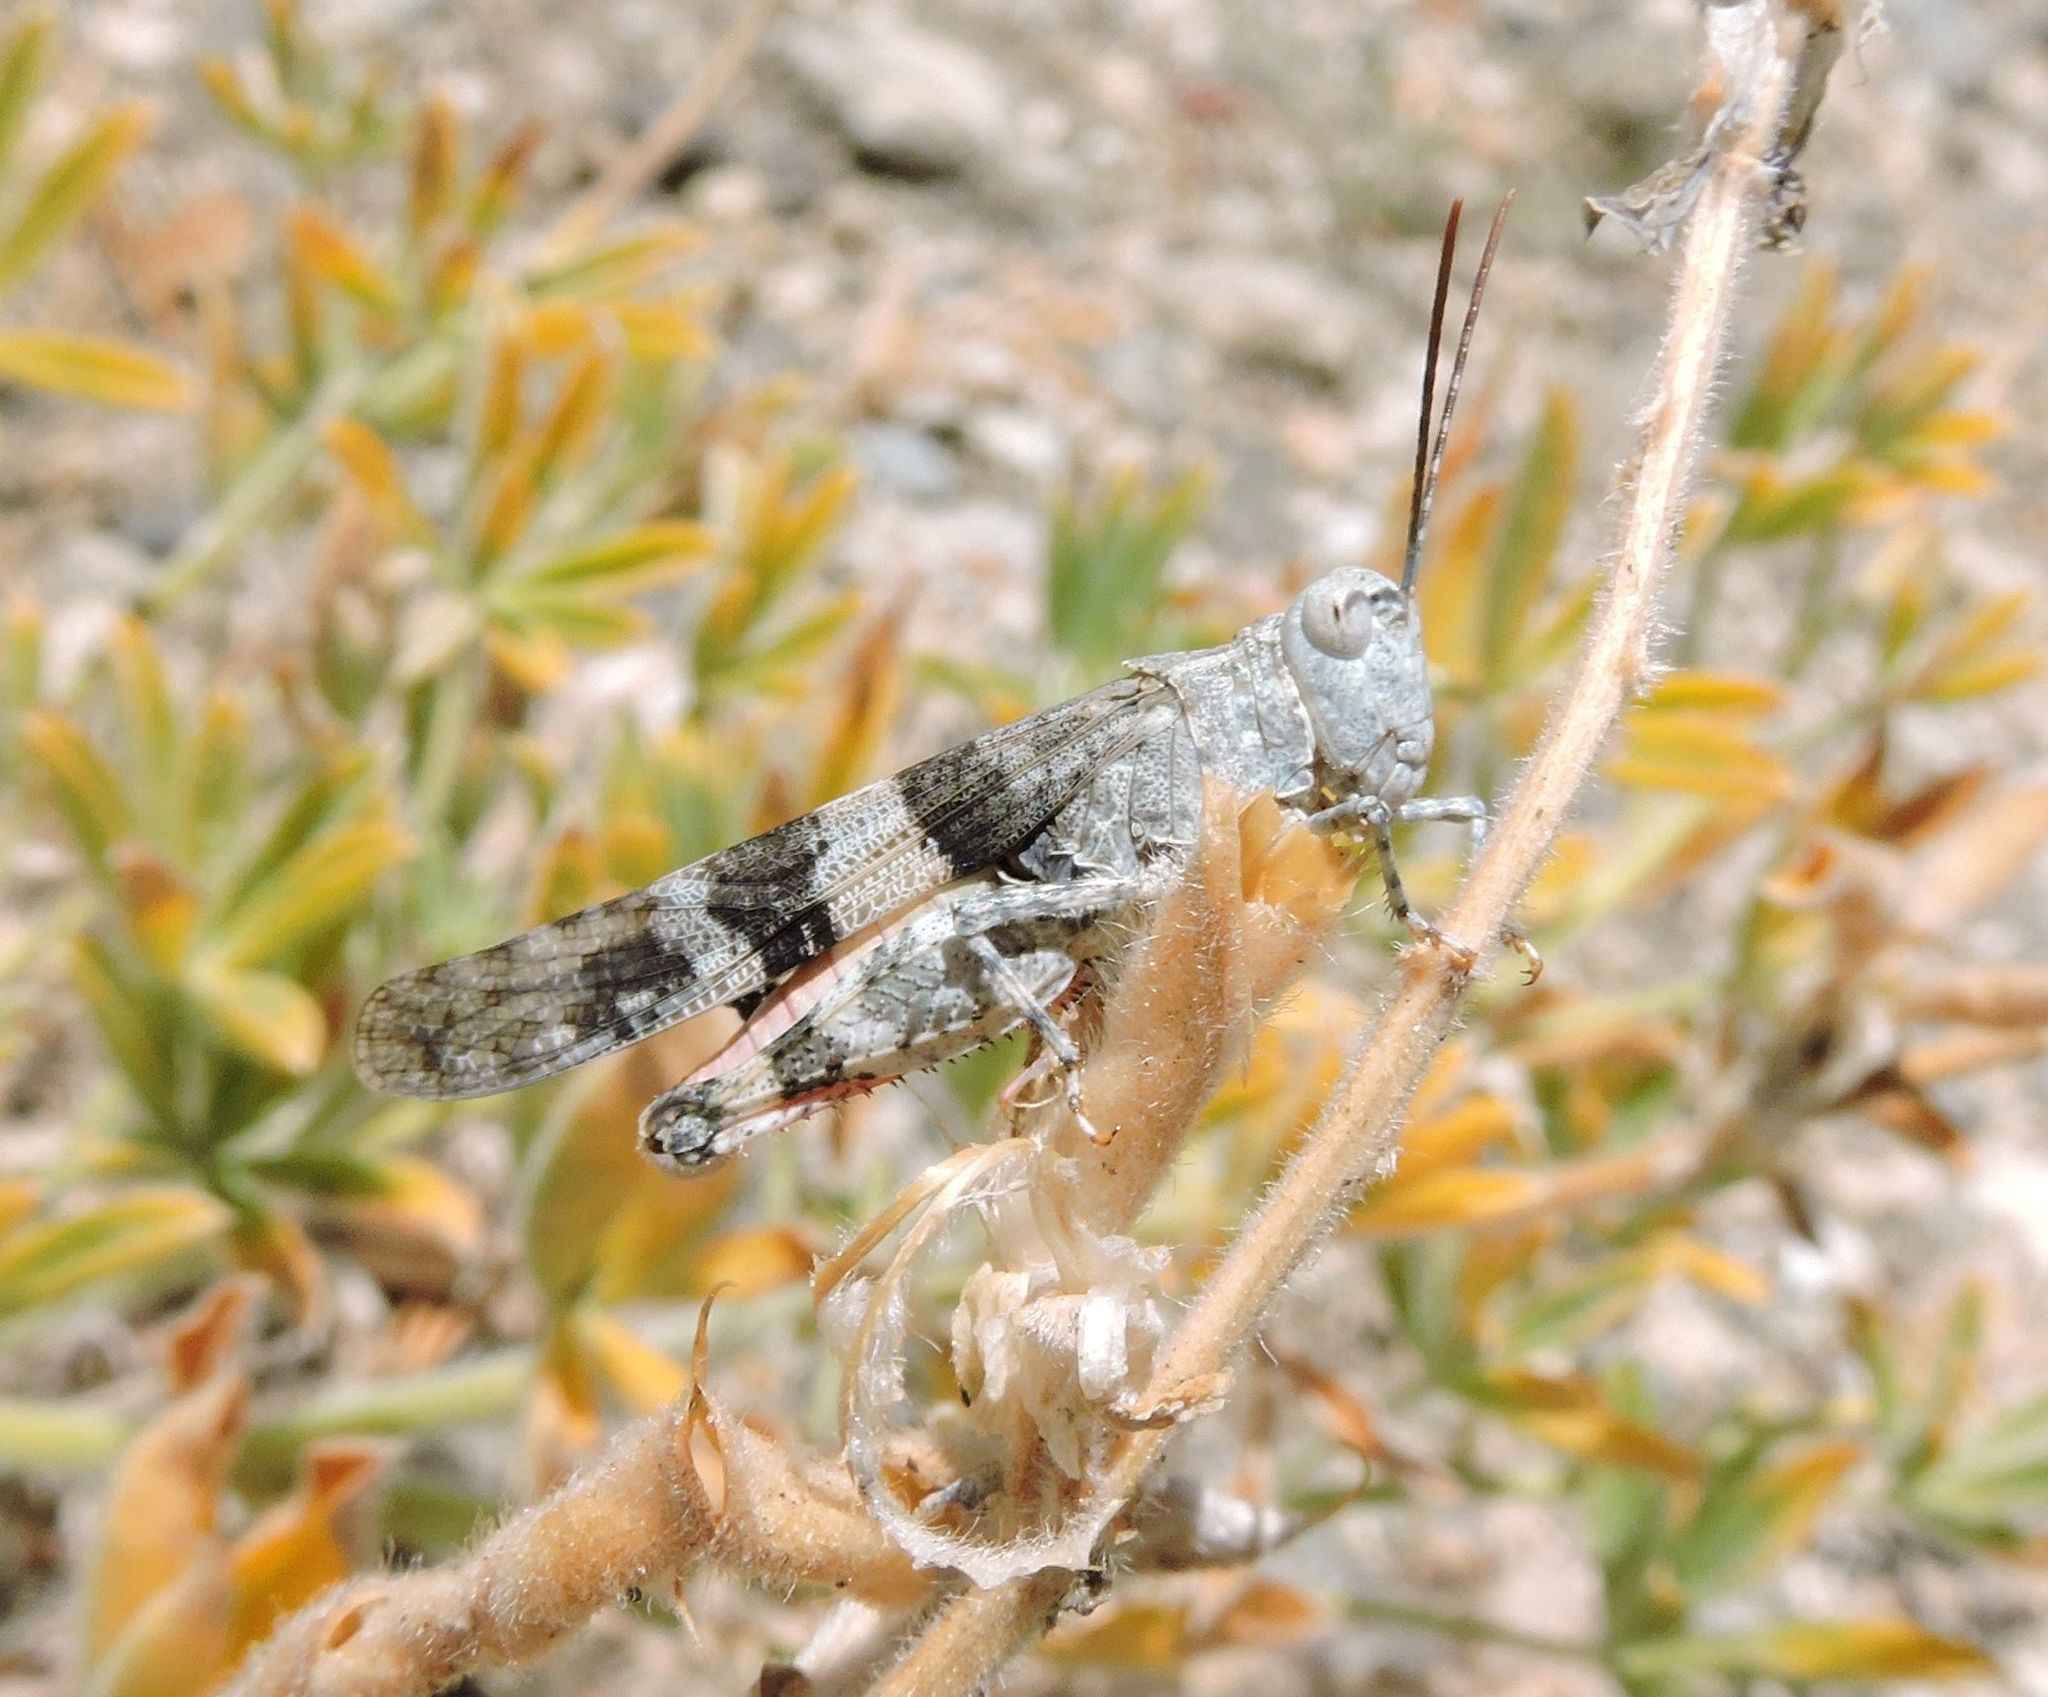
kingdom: Plantae
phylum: Tracheophyta
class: Magnoliopsida
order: Asterales
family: Asteraceae
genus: Lessingia
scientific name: Lessingia glandulifera
